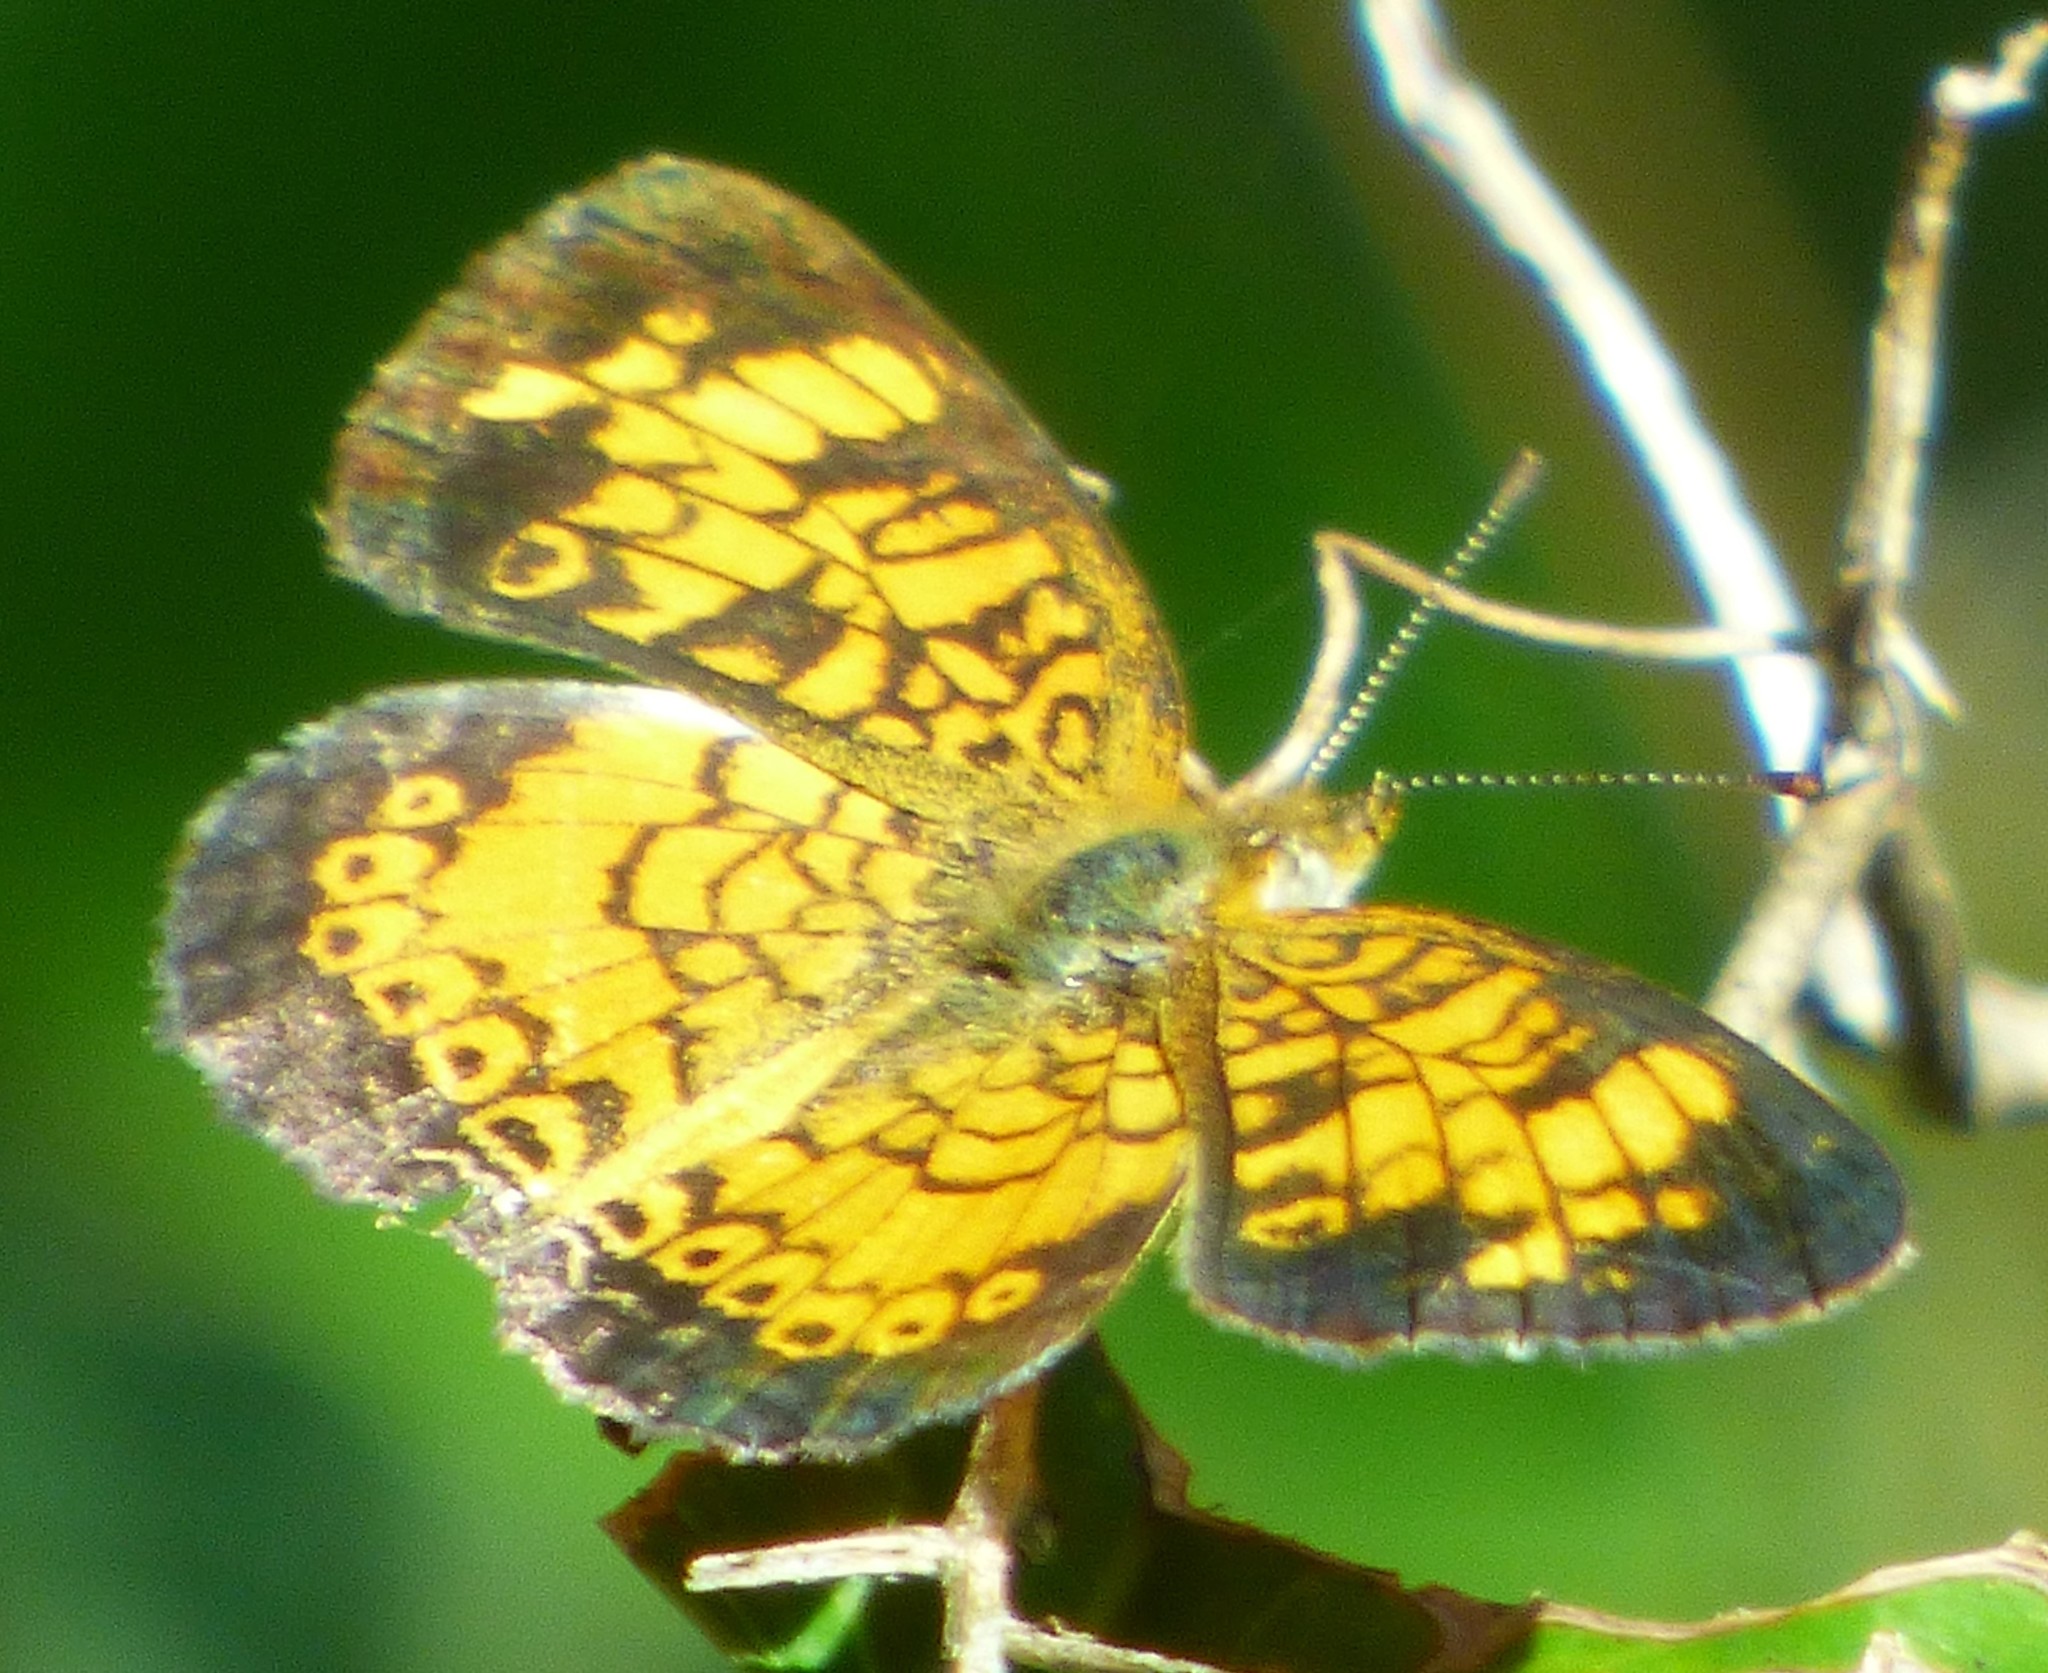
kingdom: Animalia
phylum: Arthropoda
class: Insecta
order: Lepidoptera
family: Nymphalidae
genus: Phyciodes
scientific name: Phyciodes tharos
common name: Pearl crescent
